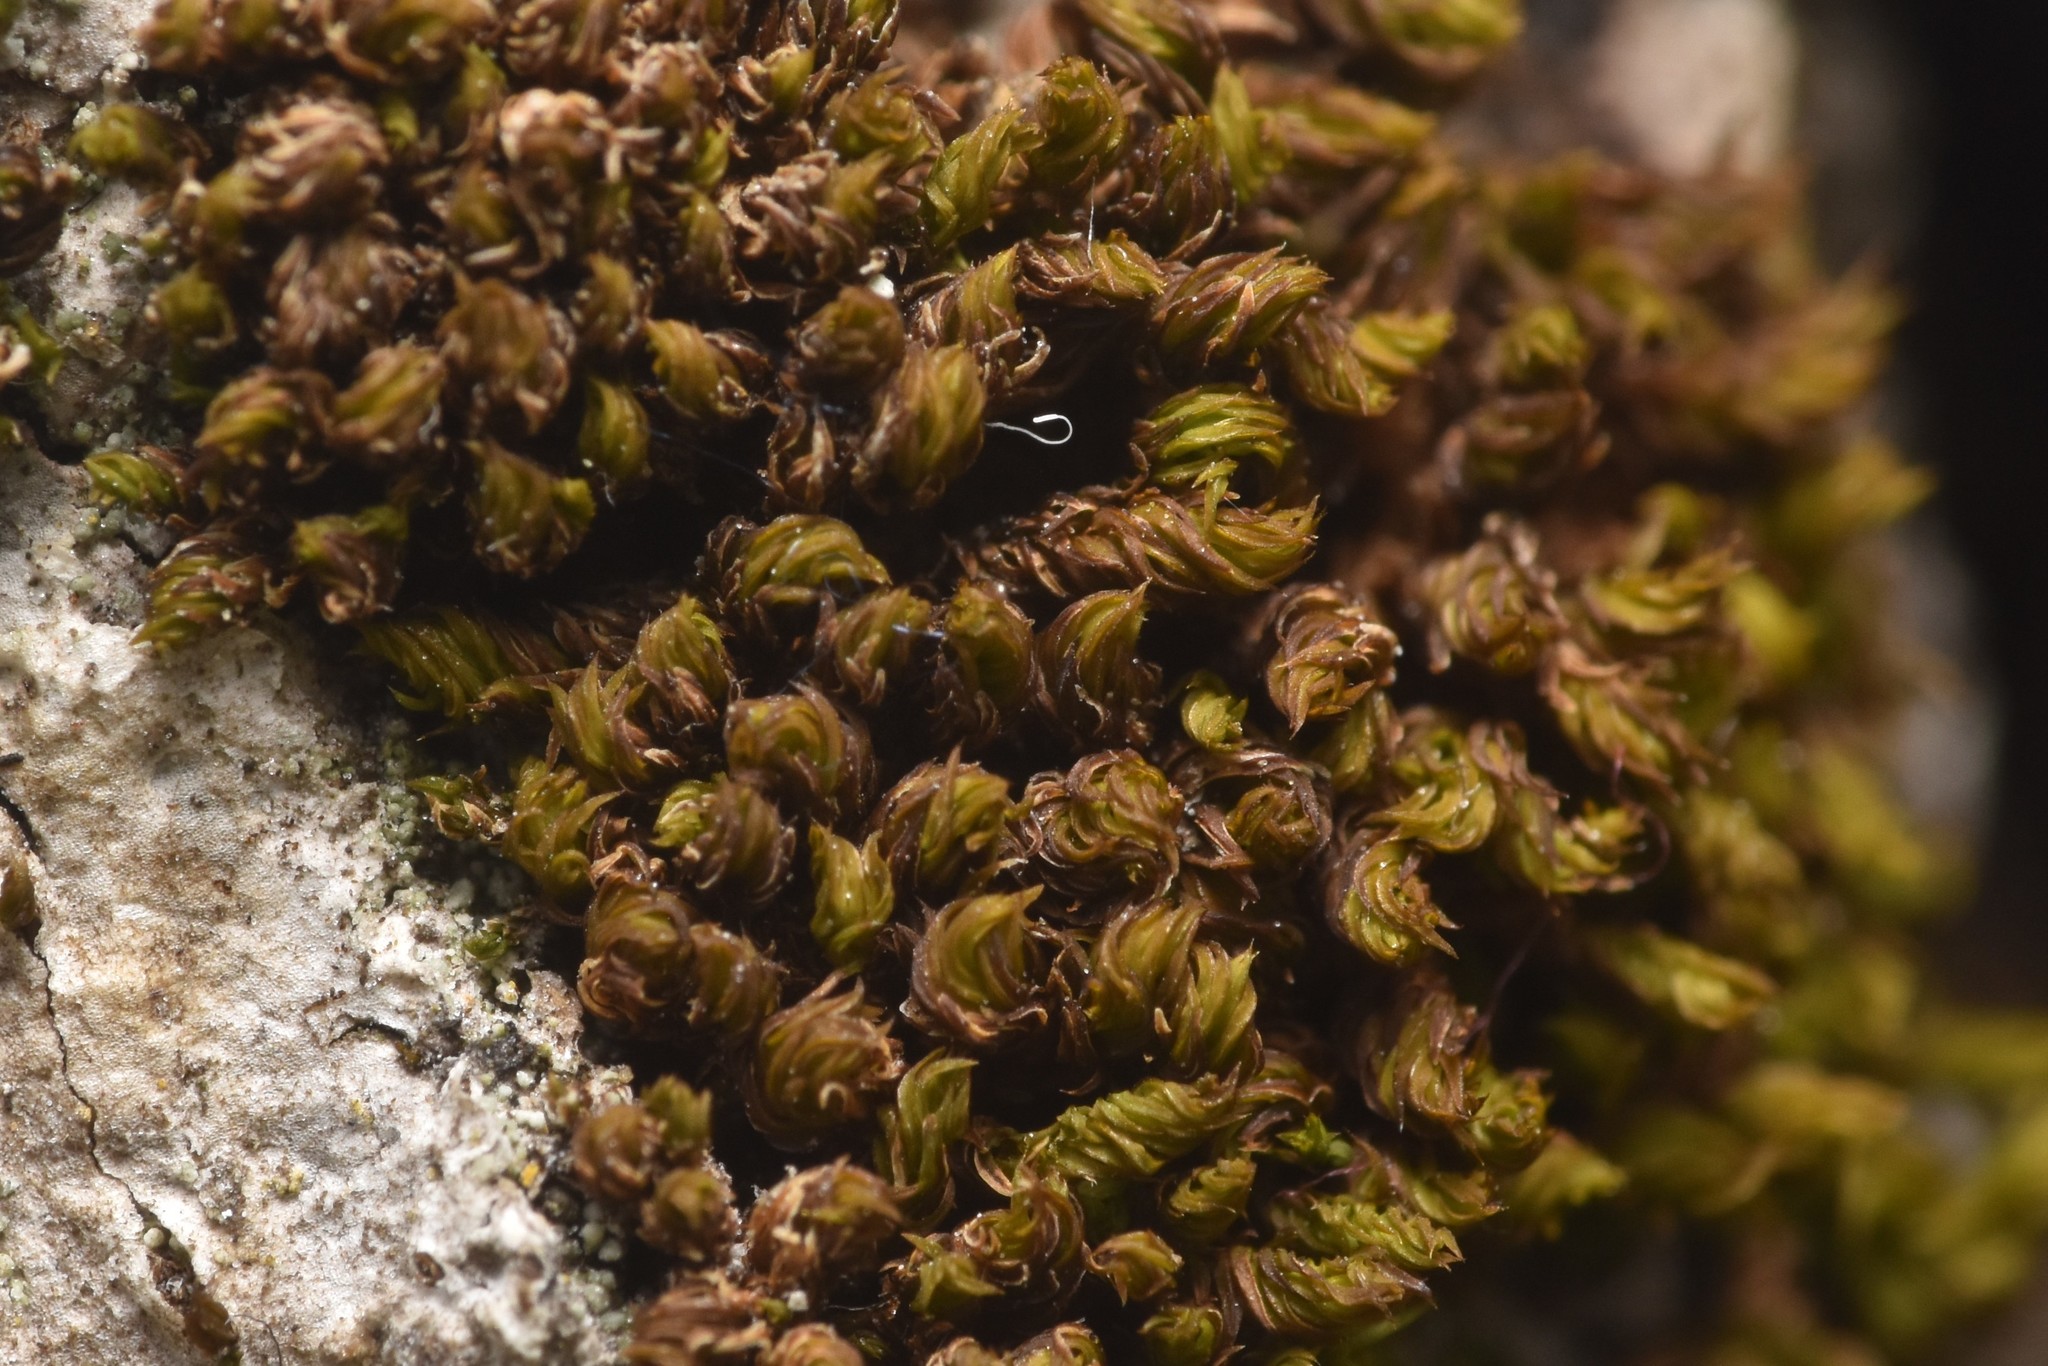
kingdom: Plantae
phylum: Bryophyta
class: Bryopsida
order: Orthotrichales
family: Orthotrichaceae
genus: Zygodon
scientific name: Zygodon rupestris
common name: Park yoke moss
